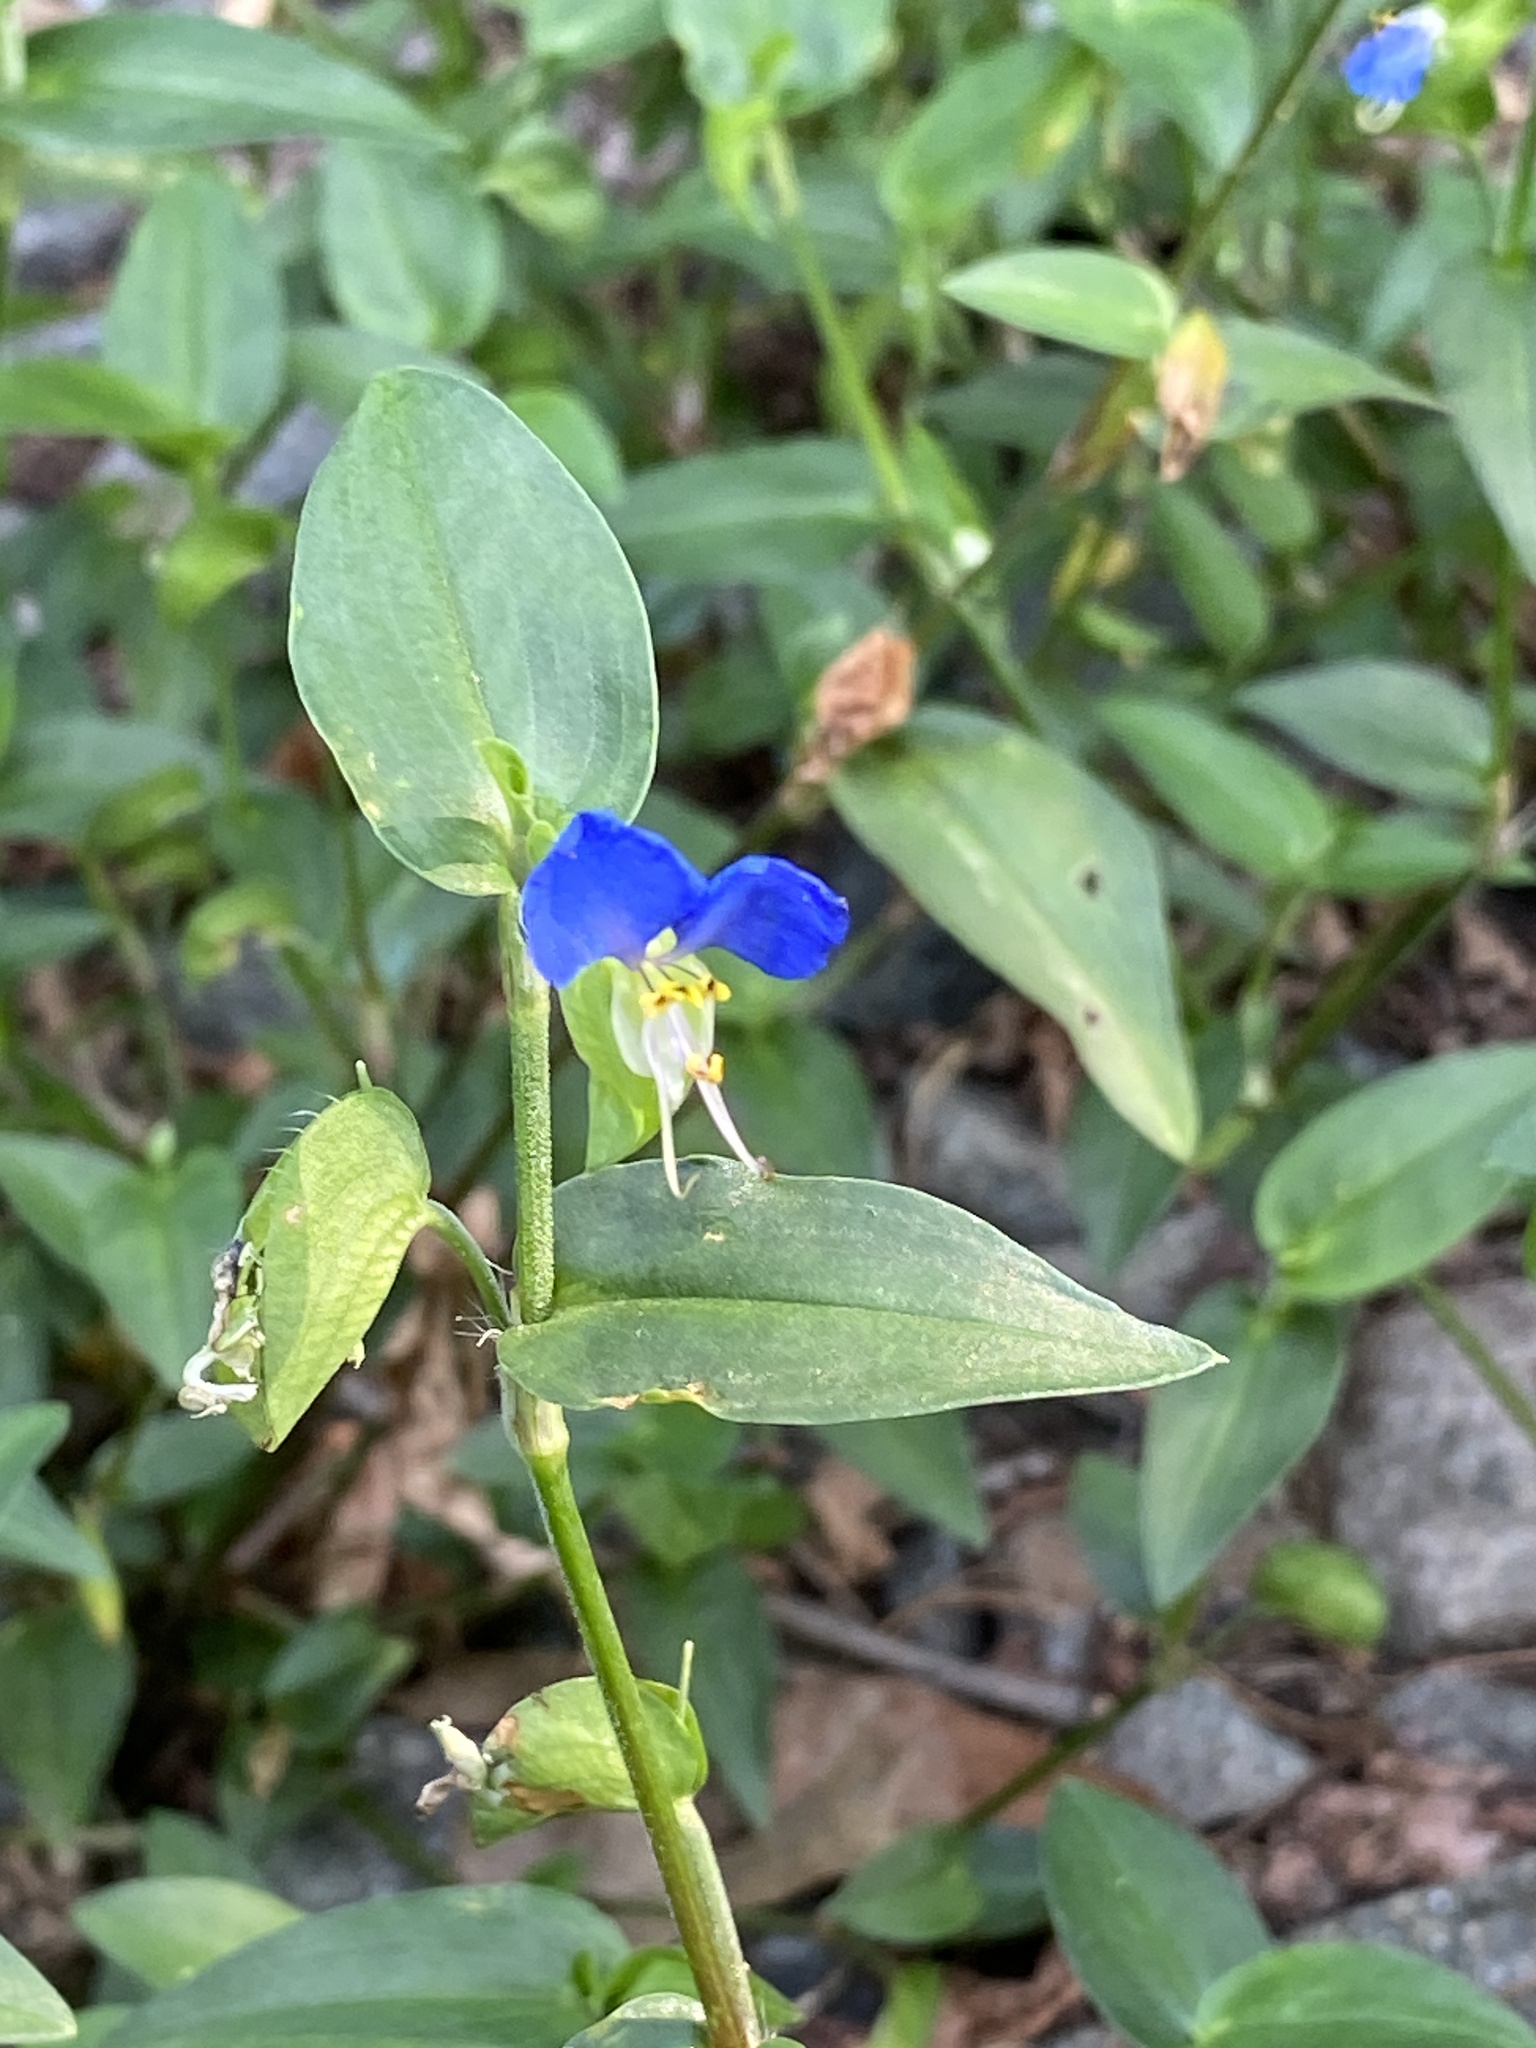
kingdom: Plantae
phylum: Tracheophyta
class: Liliopsida
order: Commelinales
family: Commelinaceae
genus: Commelina
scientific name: Commelina communis
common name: Asiatic dayflower
